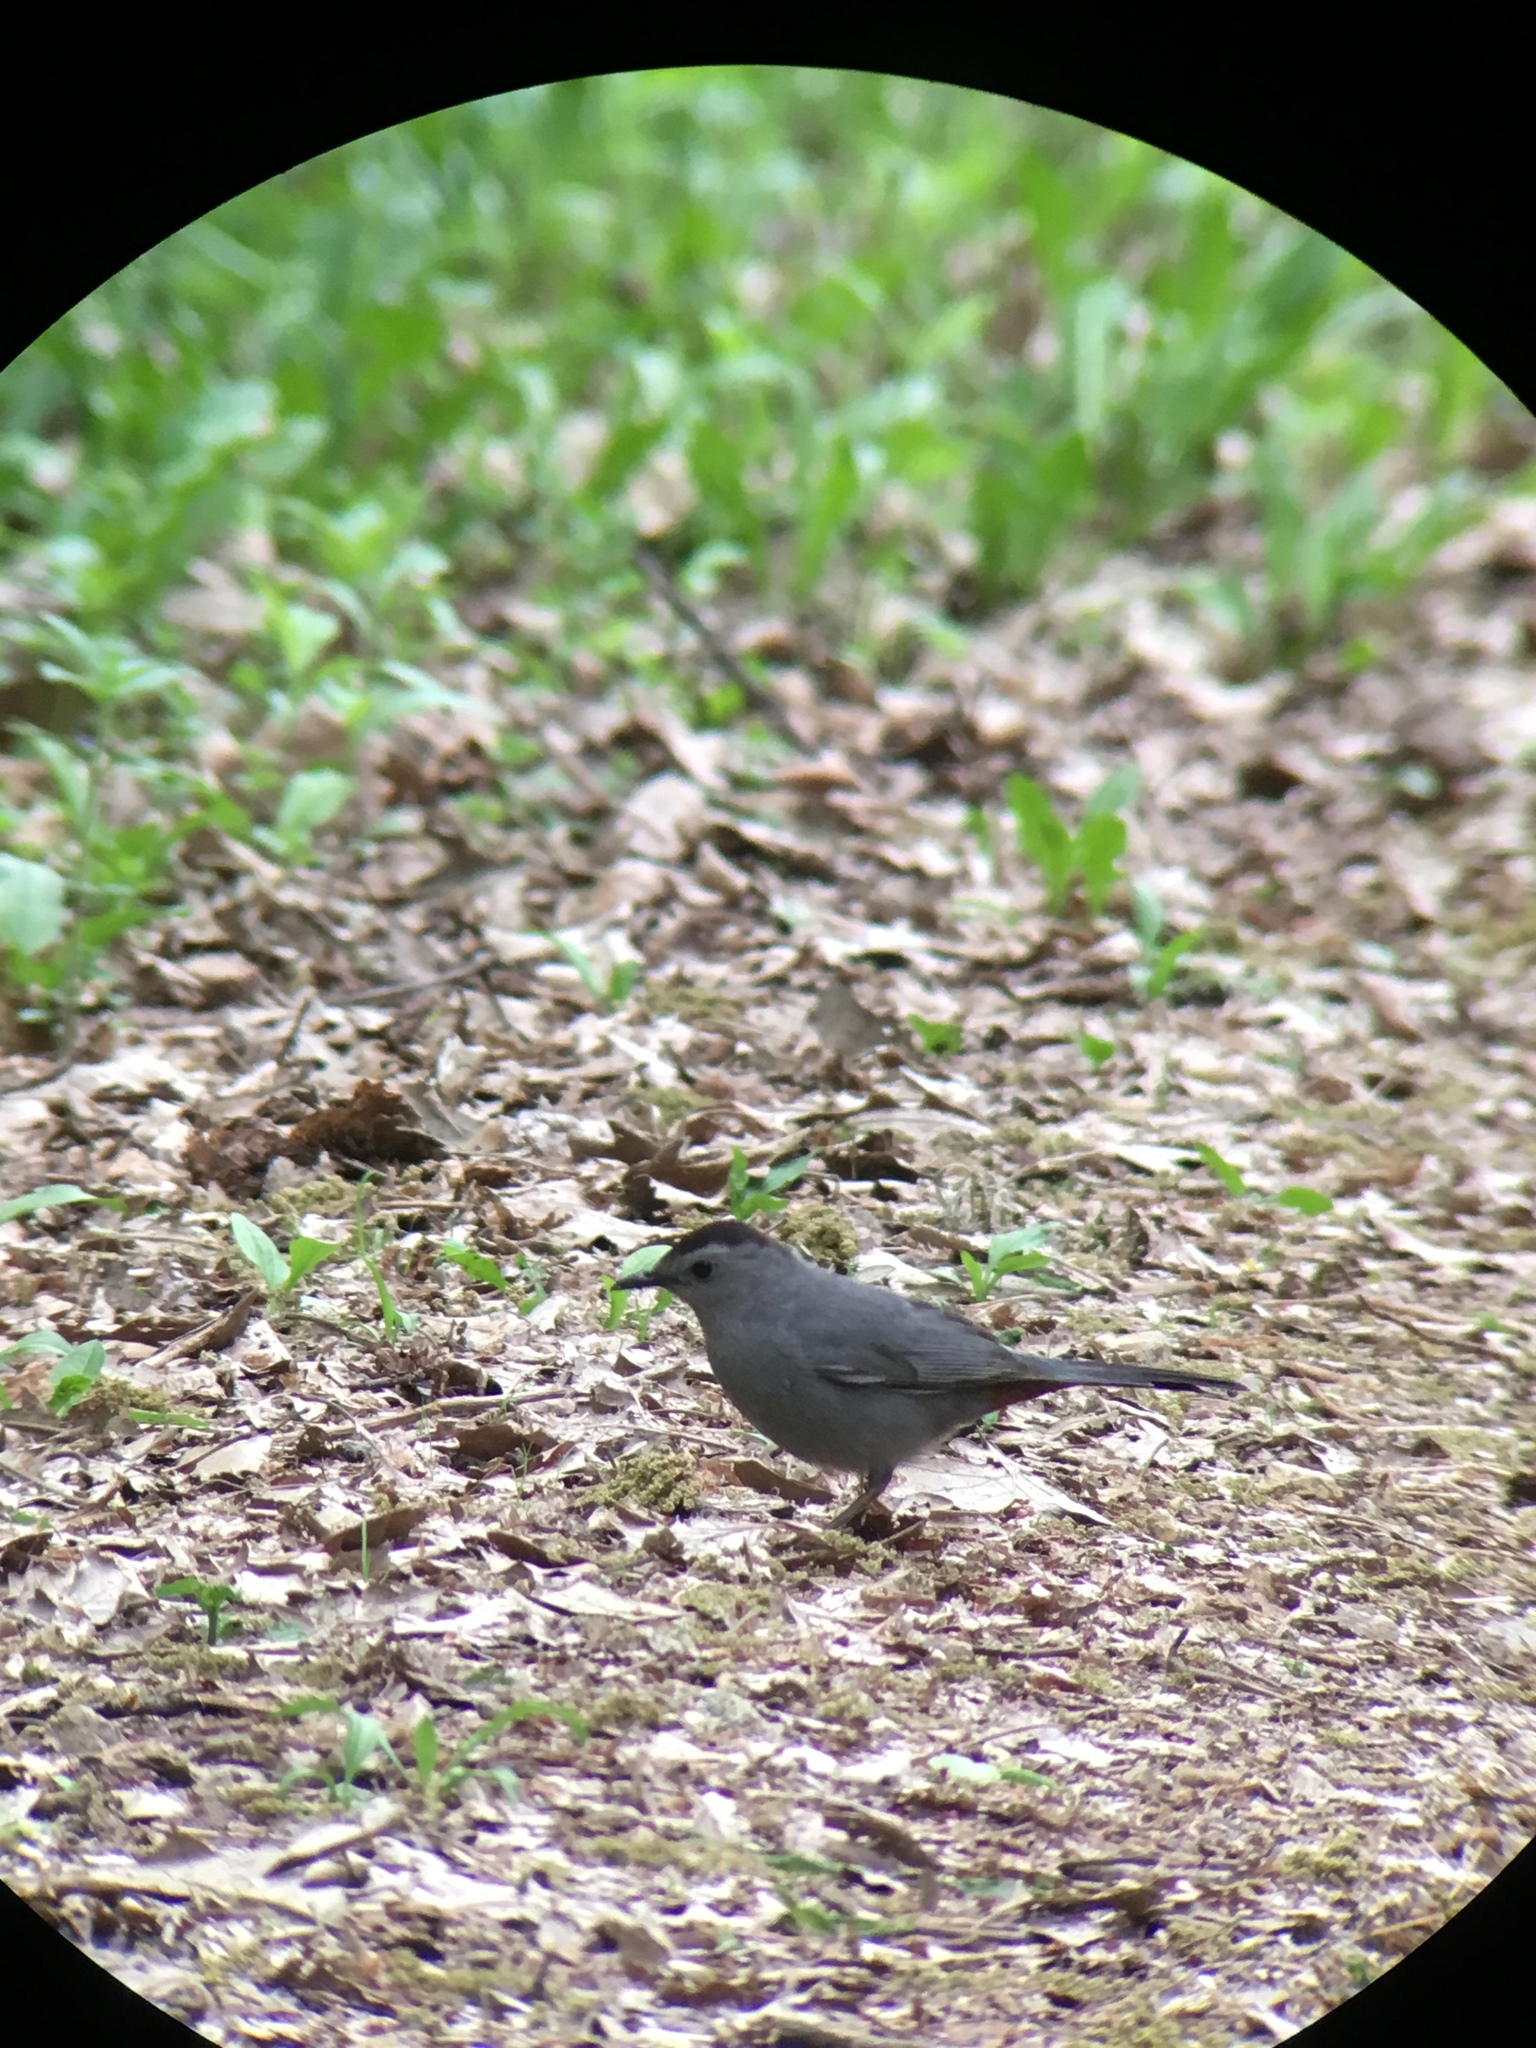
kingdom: Animalia
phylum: Chordata
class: Aves
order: Passeriformes
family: Mimidae
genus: Dumetella
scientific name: Dumetella carolinensis
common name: Gray catbird
